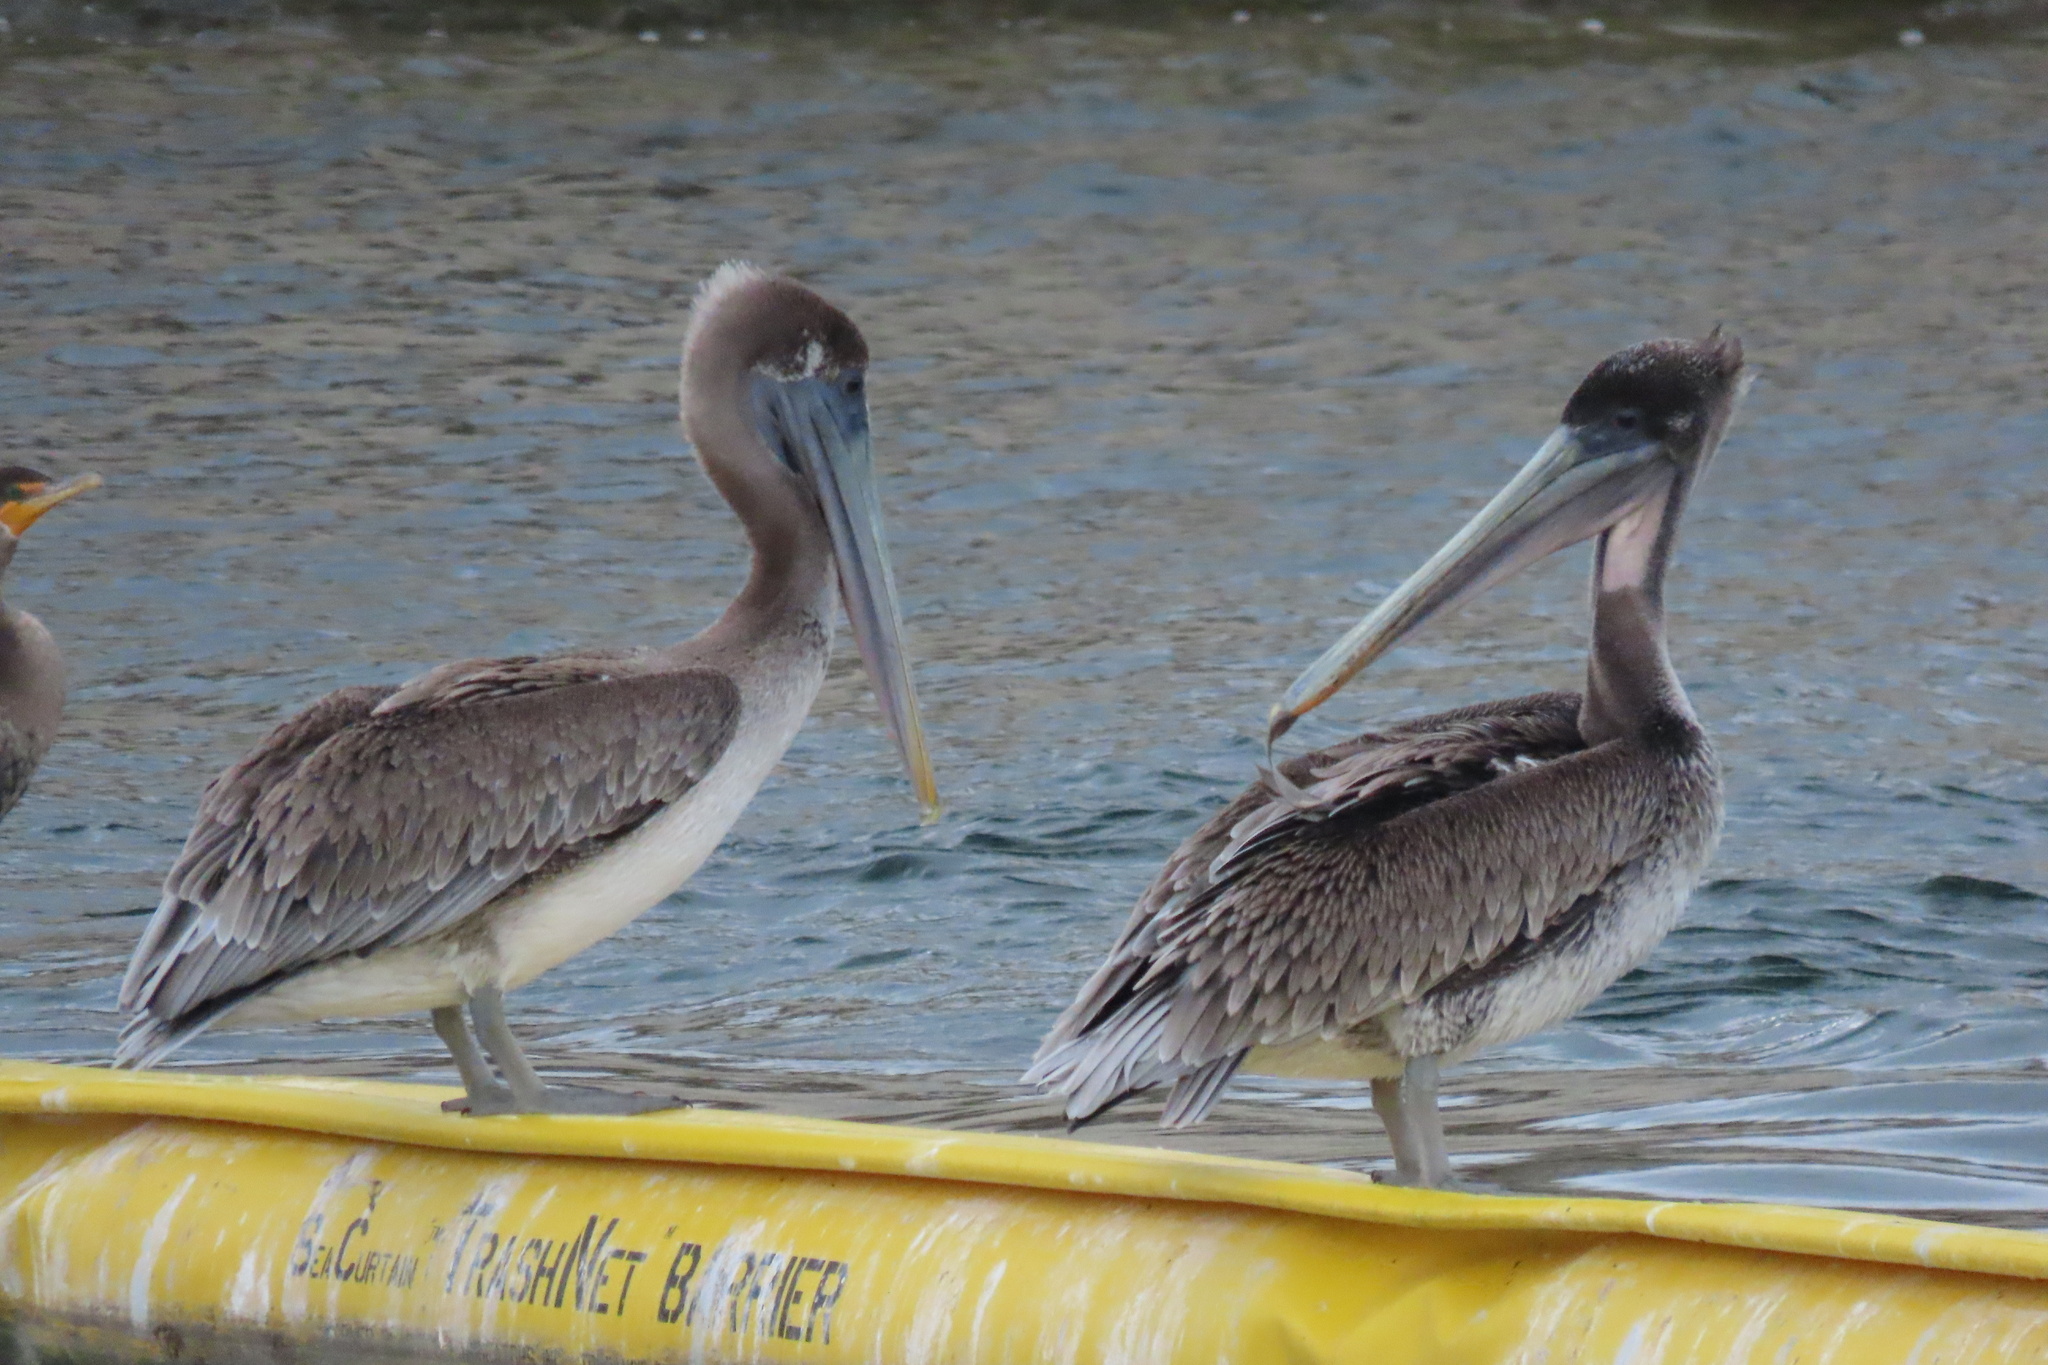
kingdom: Animalia
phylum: Chordata
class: Aves
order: Pelecaniformes
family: Pelecanidae
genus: Pelecanus
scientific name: Pelecanus occidentalis
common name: Brown pelican
